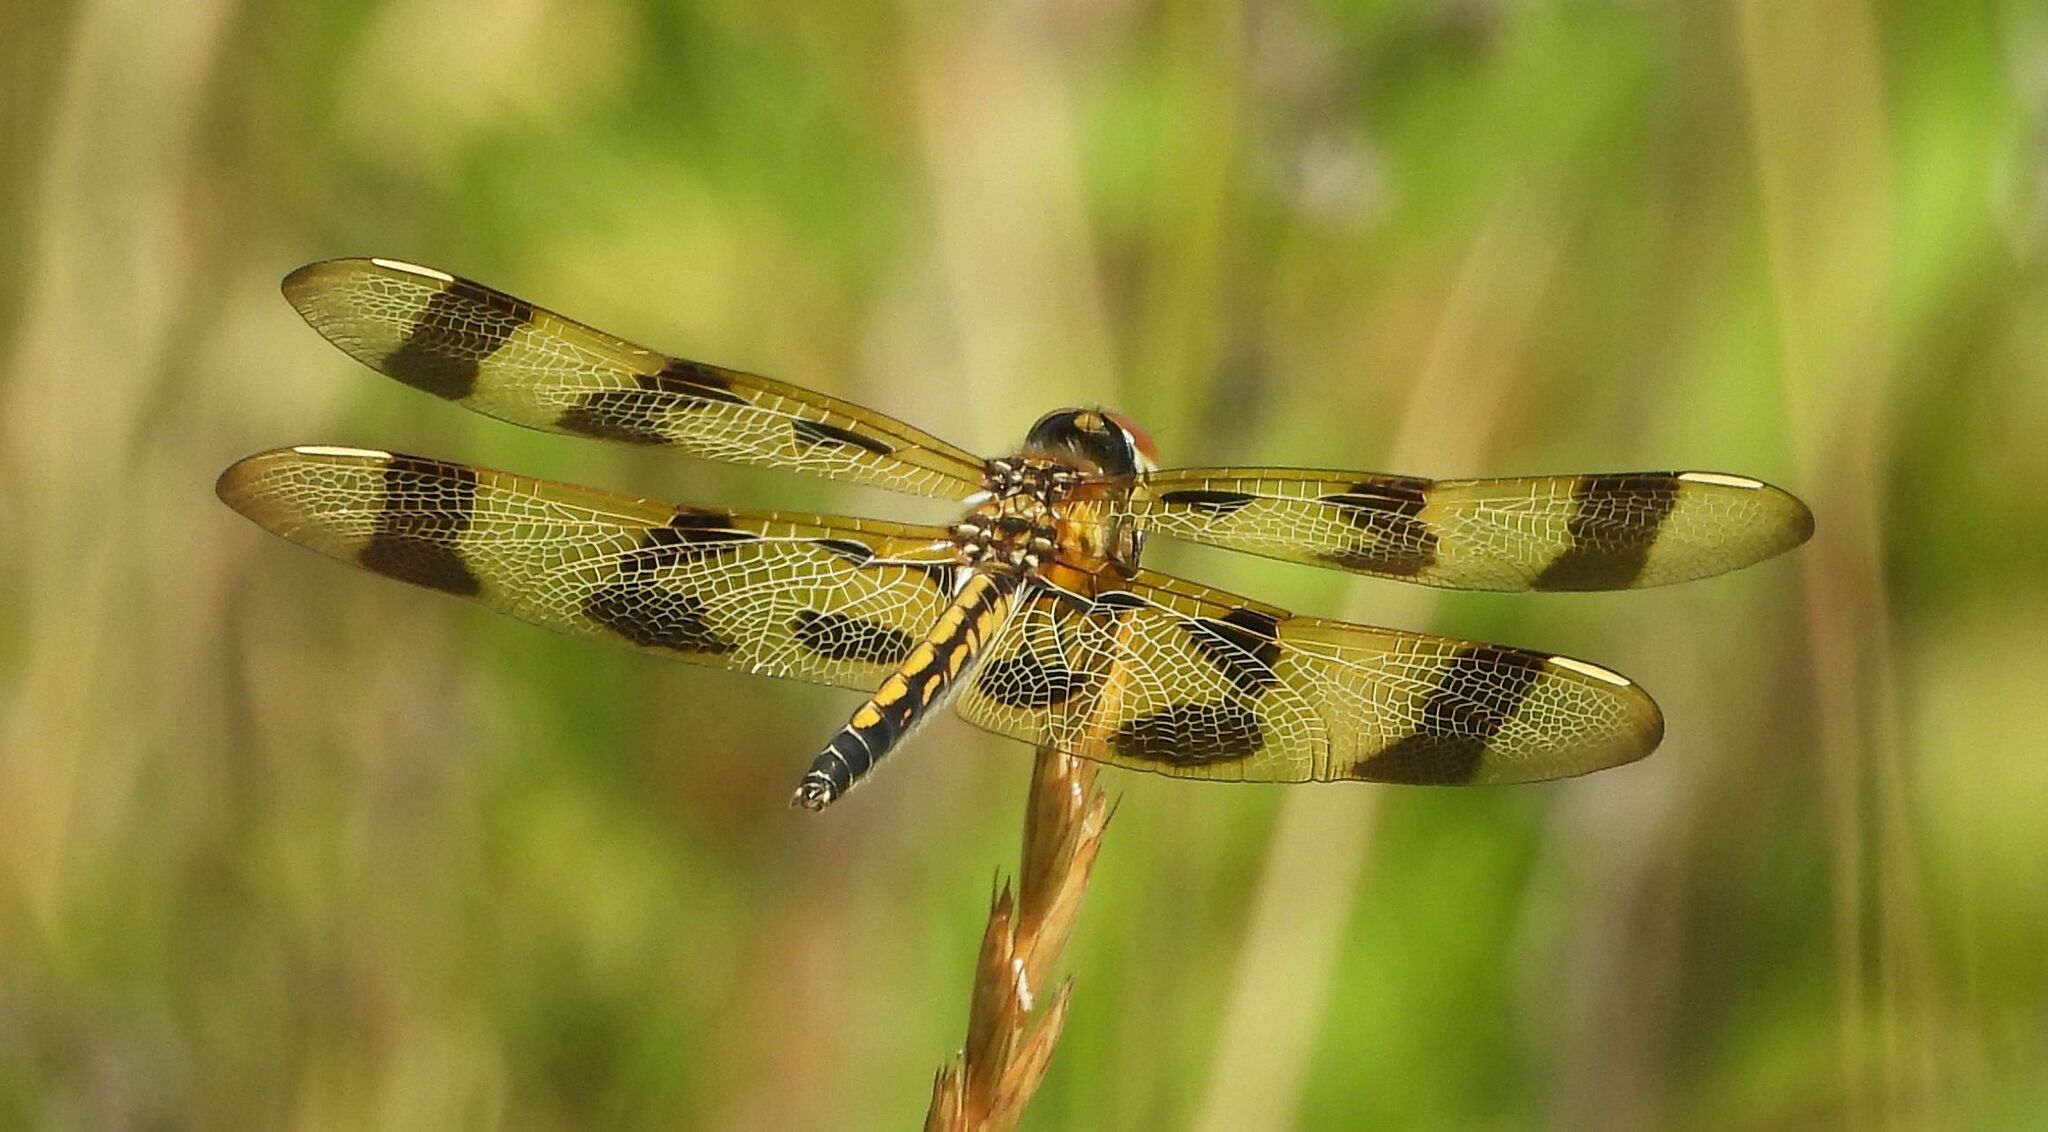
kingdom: Animalia
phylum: Arthropoda
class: Insecta
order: Odonata
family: Libellulidae
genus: Celithemis
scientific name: Celithemis eponina
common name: Halloween pennant
